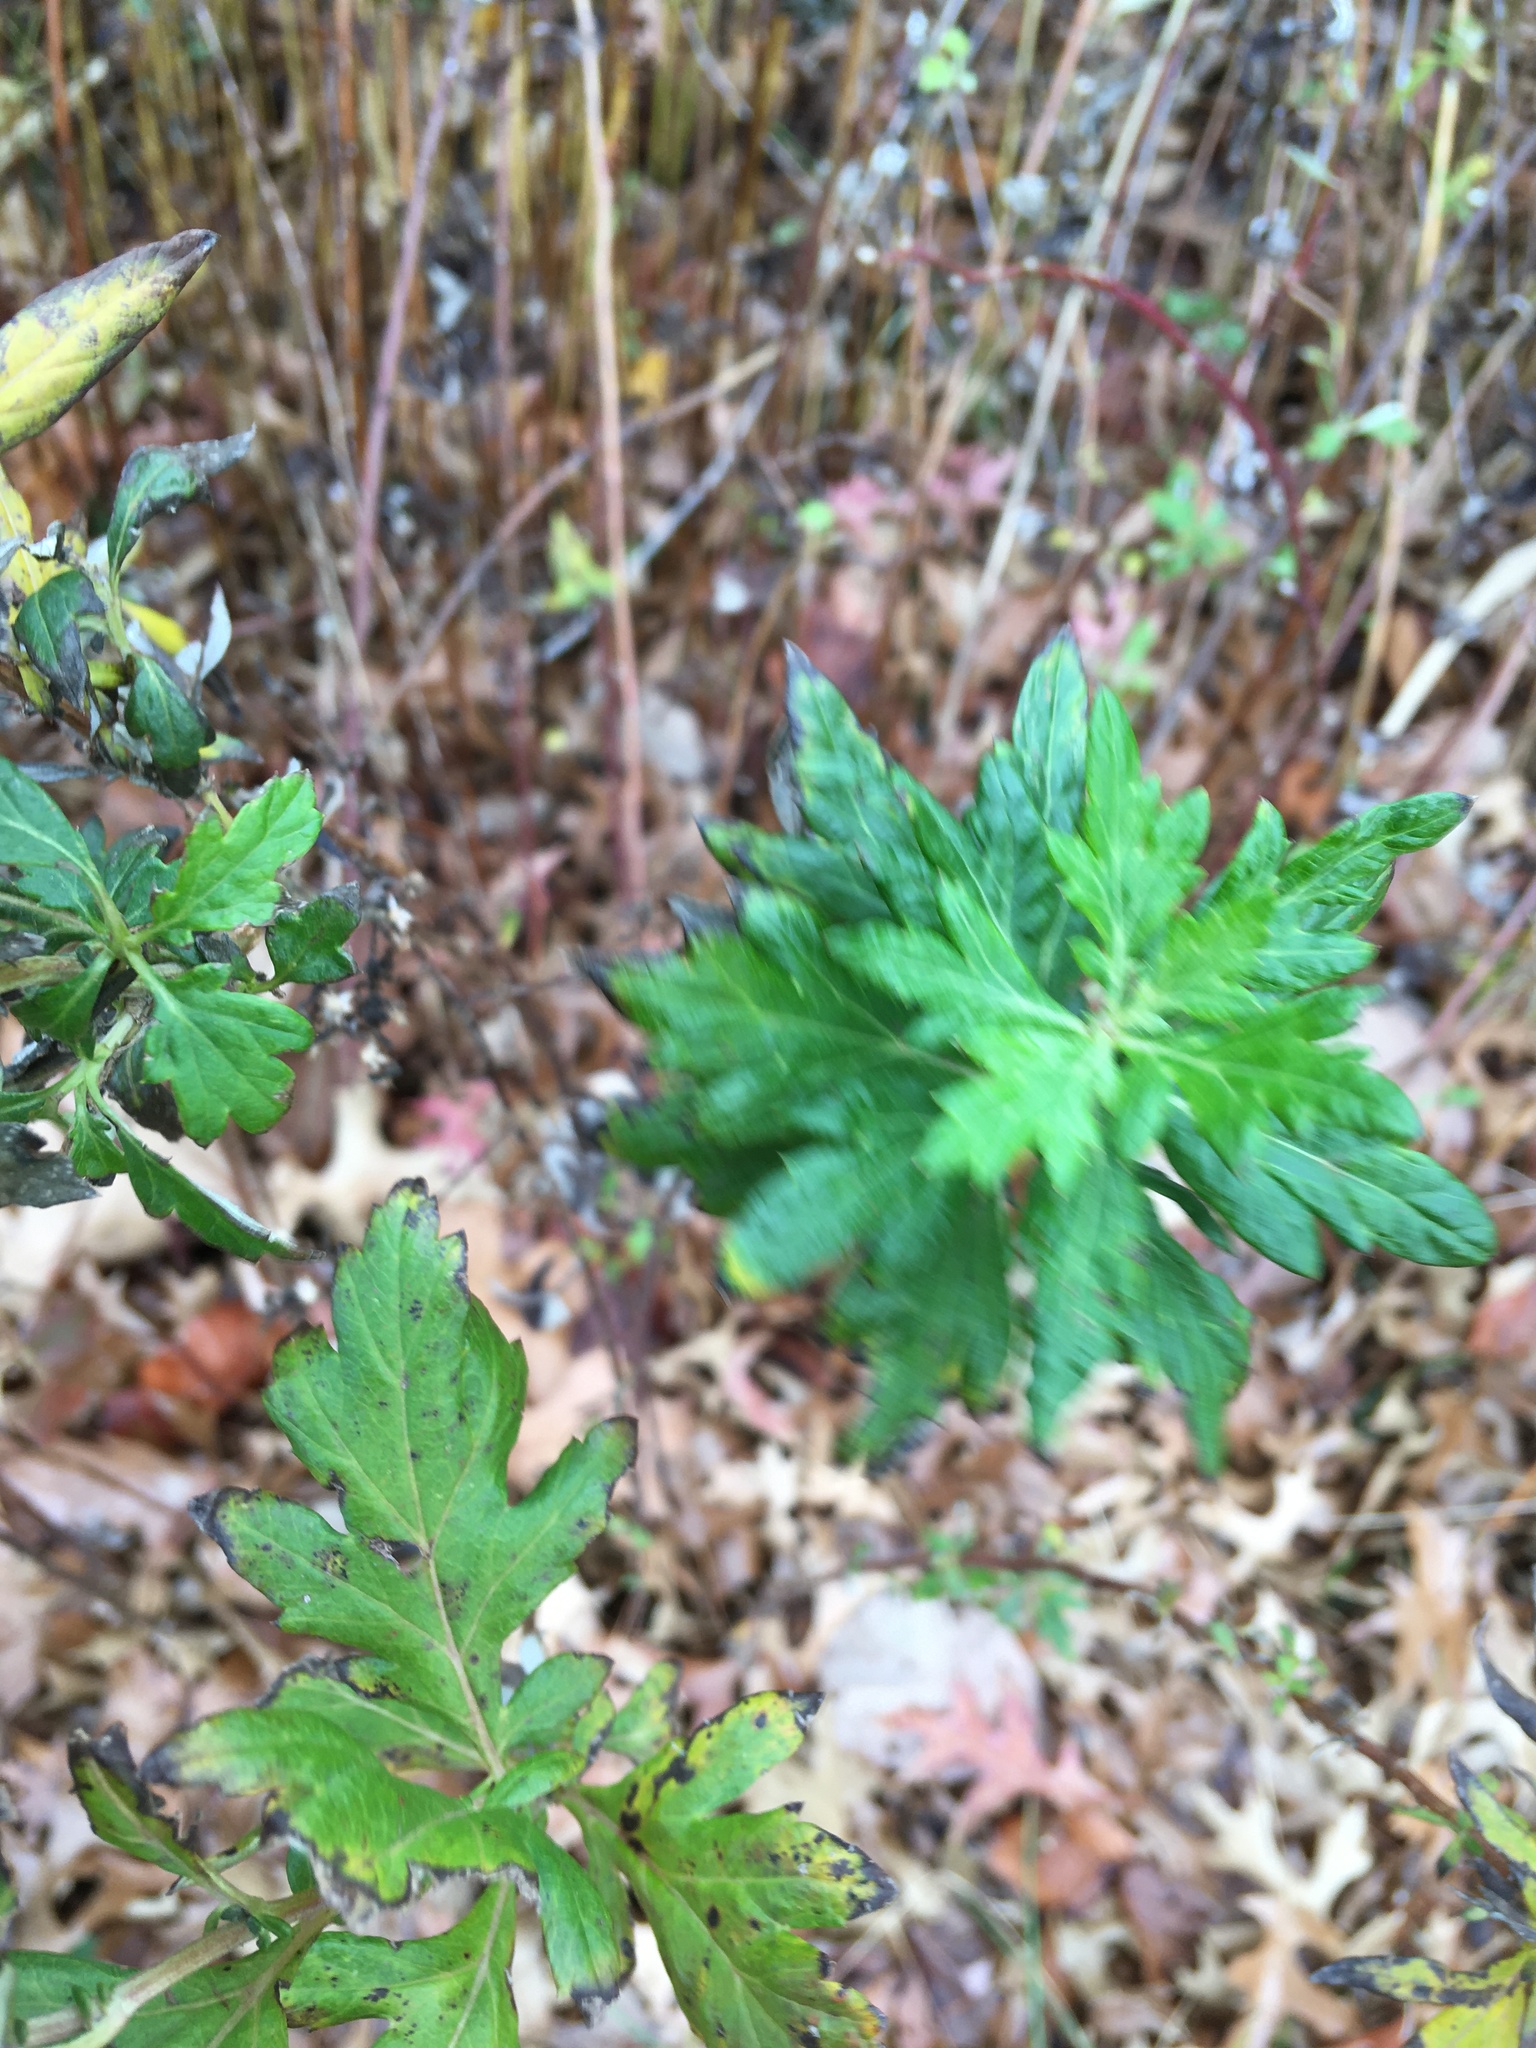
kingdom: Plantae
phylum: Tracheophyta
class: Magnoliopsida
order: Asterales
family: Asteraceae
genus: Artemisia
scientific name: Artemisia vulgaris
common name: Mugwort
